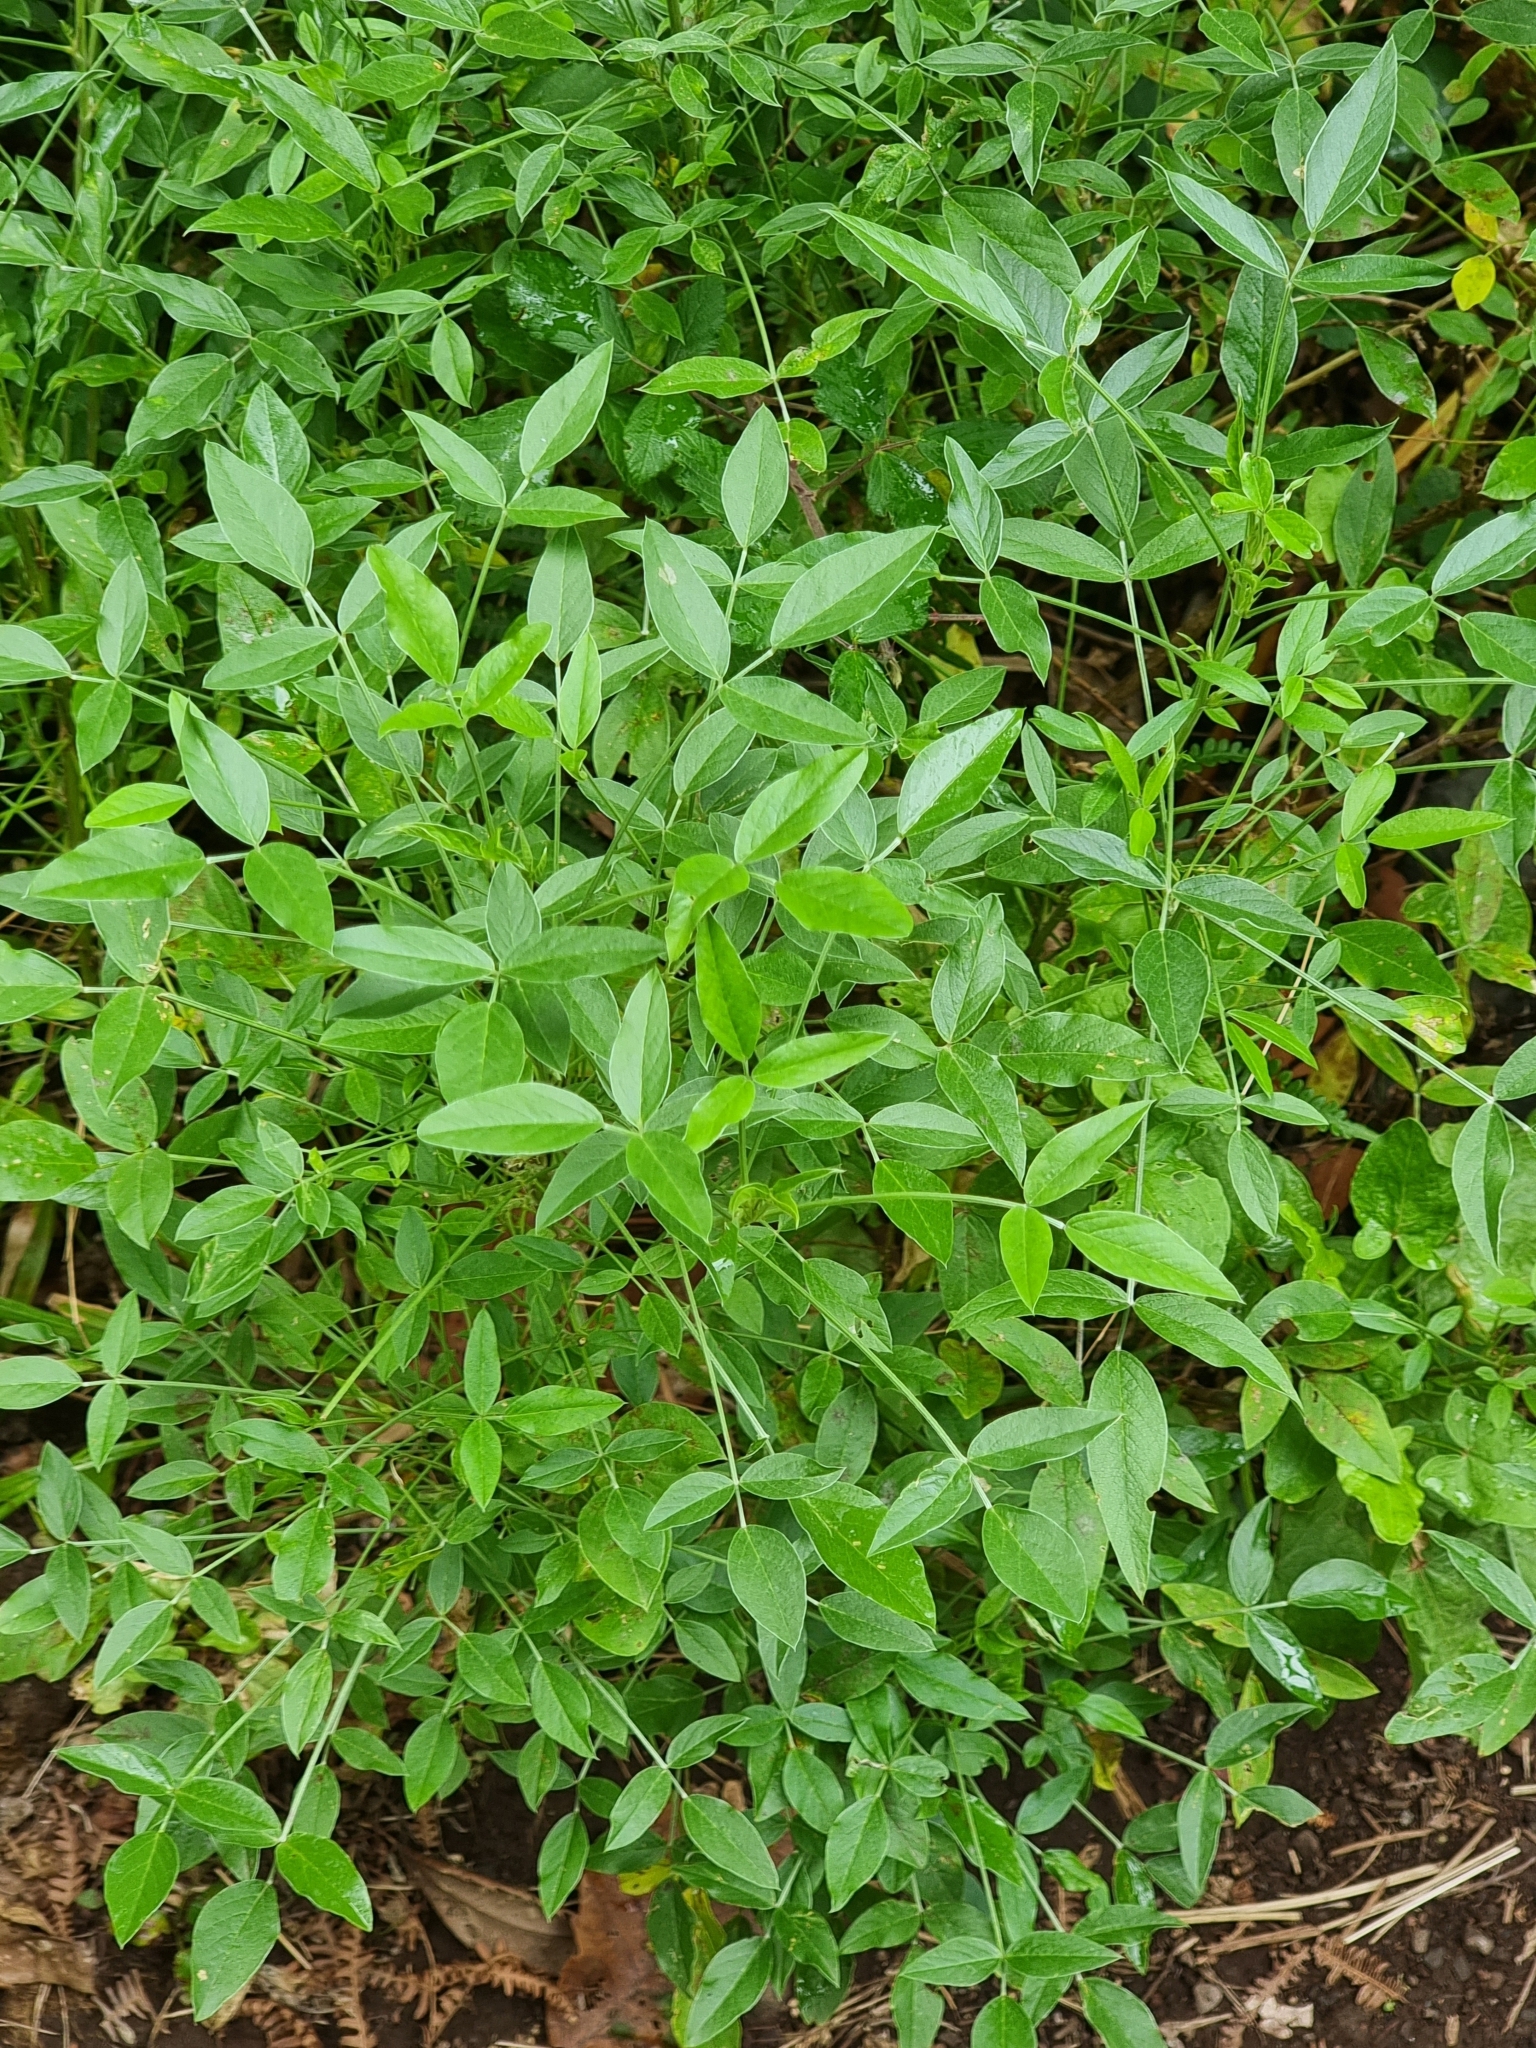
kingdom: Plantae
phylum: Tracheophyta
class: Magnoliopsida
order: Fabales
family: Fabaceae
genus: Bituminaria
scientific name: Bituminaria bituminosa
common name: Arabian pea
